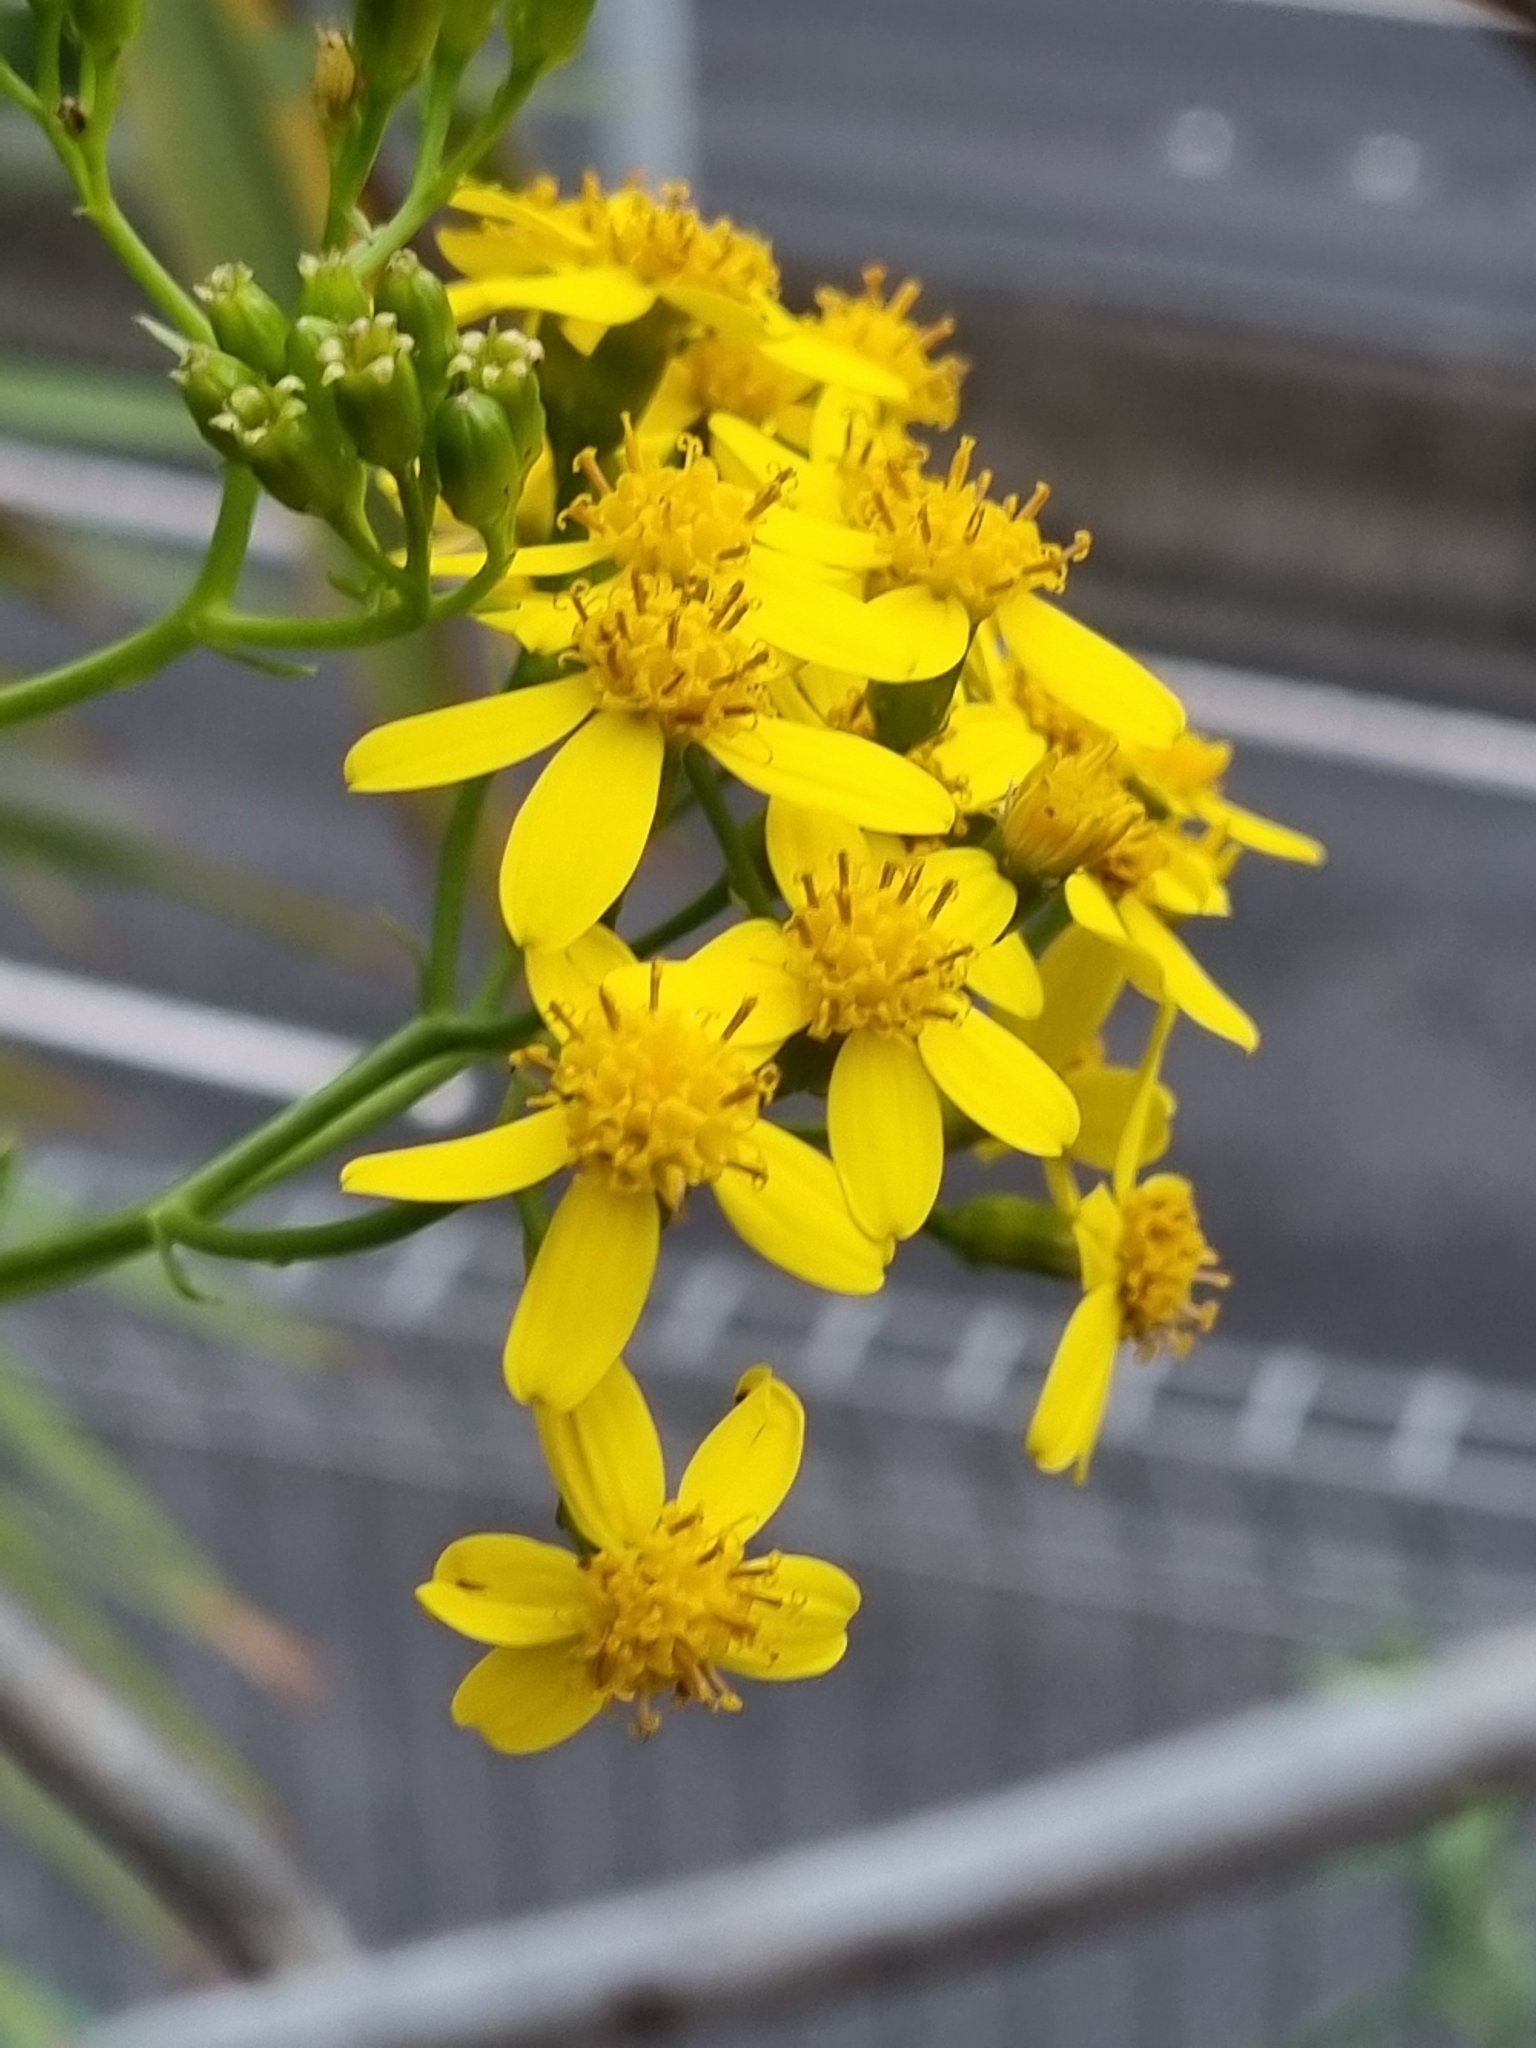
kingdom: Plantae
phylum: Tracheophyta
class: Magnoliopsida
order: Asterales
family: Asteraceae
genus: Senecio
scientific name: Senecio angulatus
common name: Climbing groundsel
